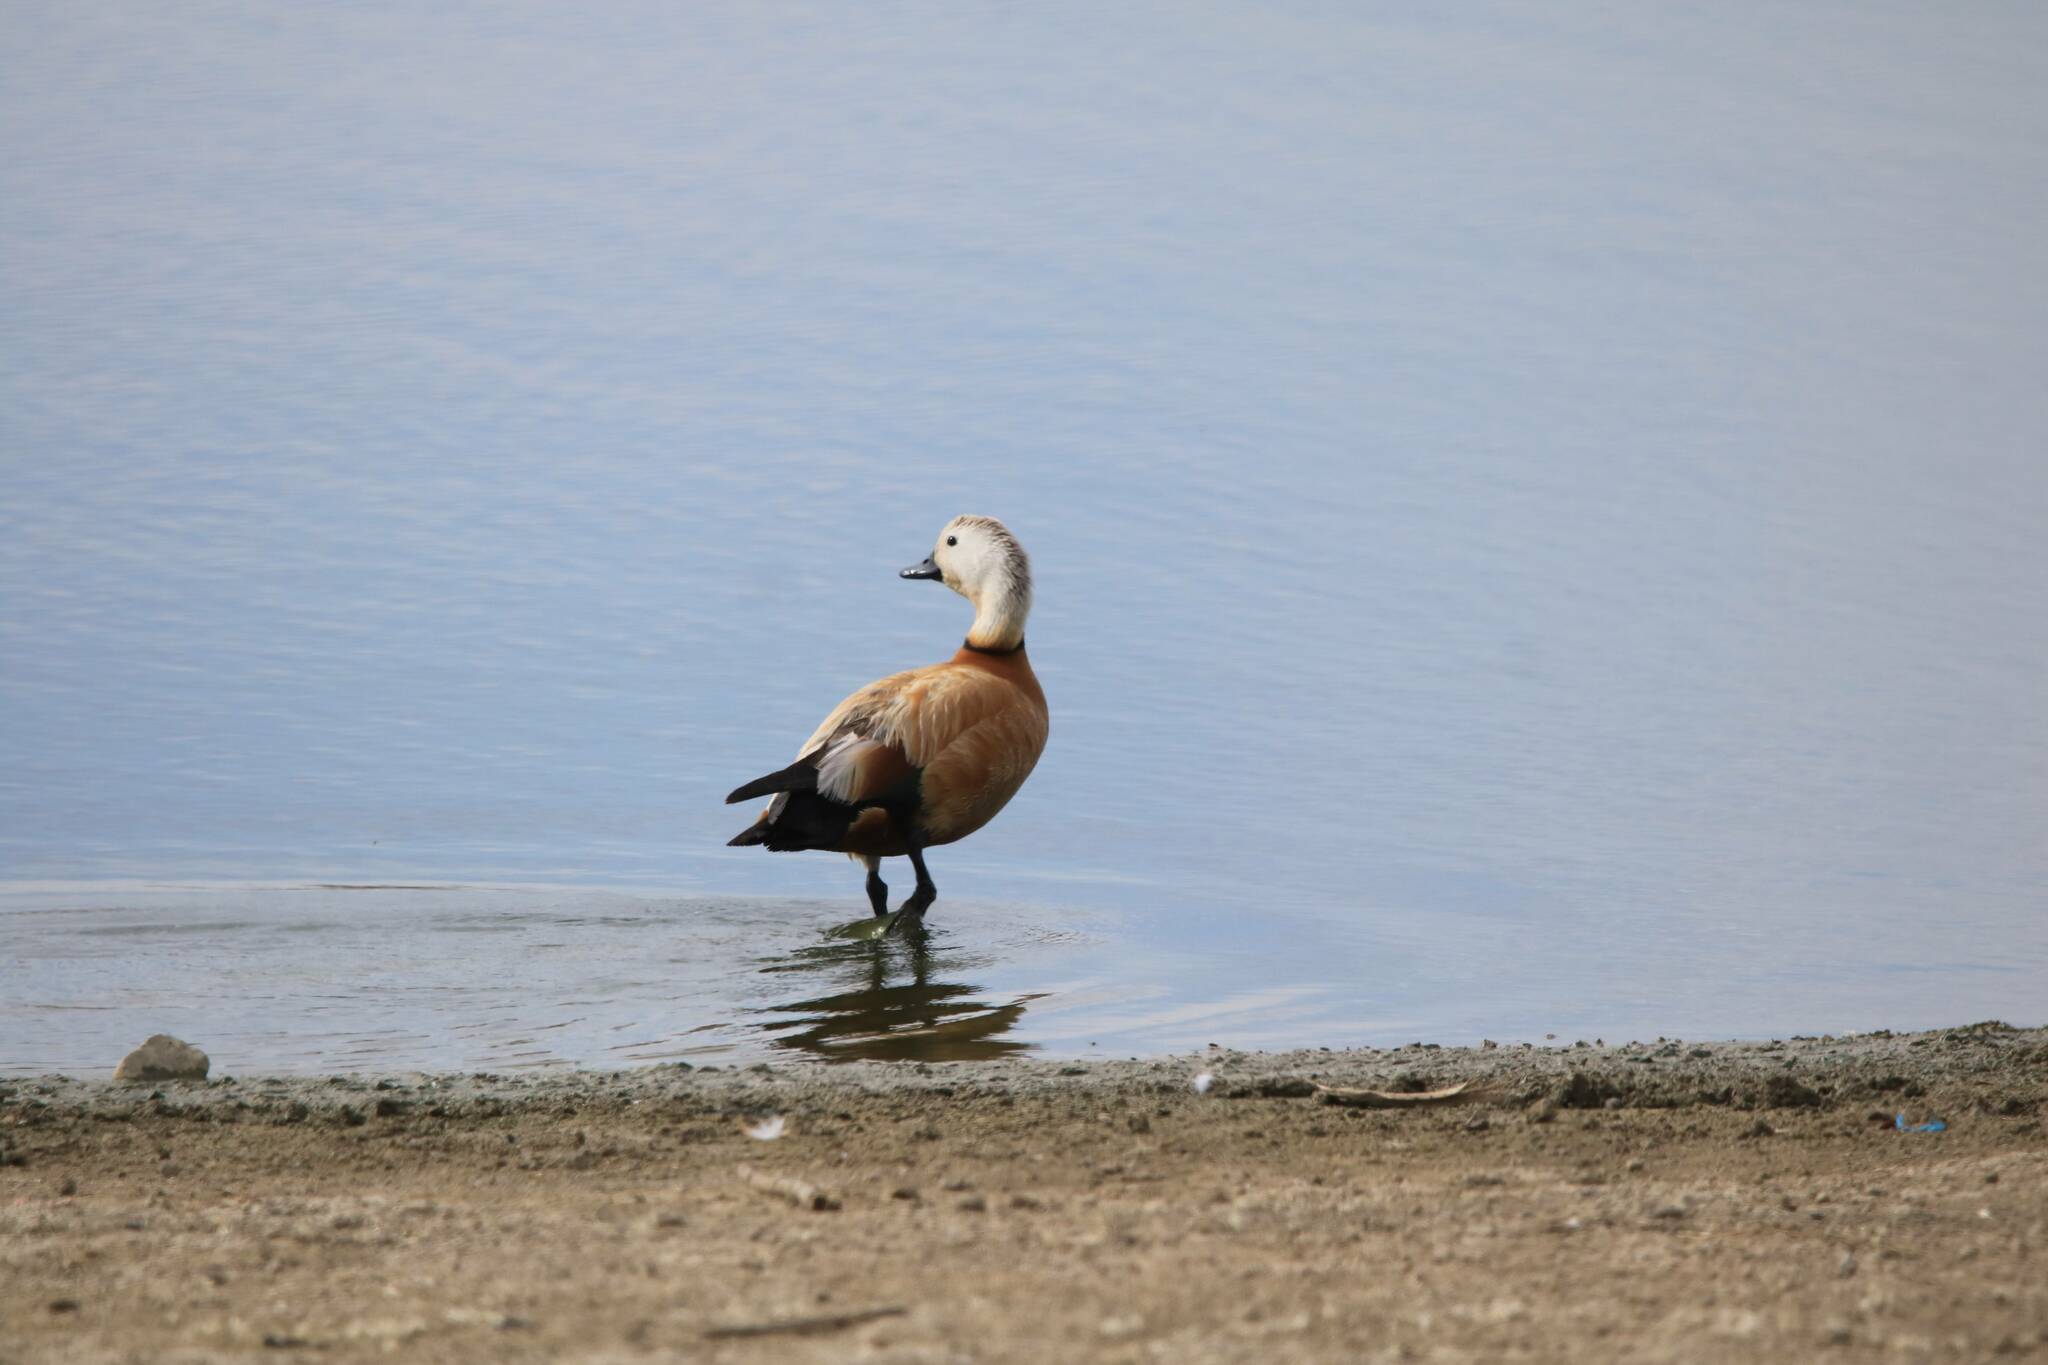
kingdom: Animalia
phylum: Chordata
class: Aves
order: Anseriformes
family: Anatidae
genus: Tadorna
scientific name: Tadorna ferruginea
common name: Ruddy shelduck
